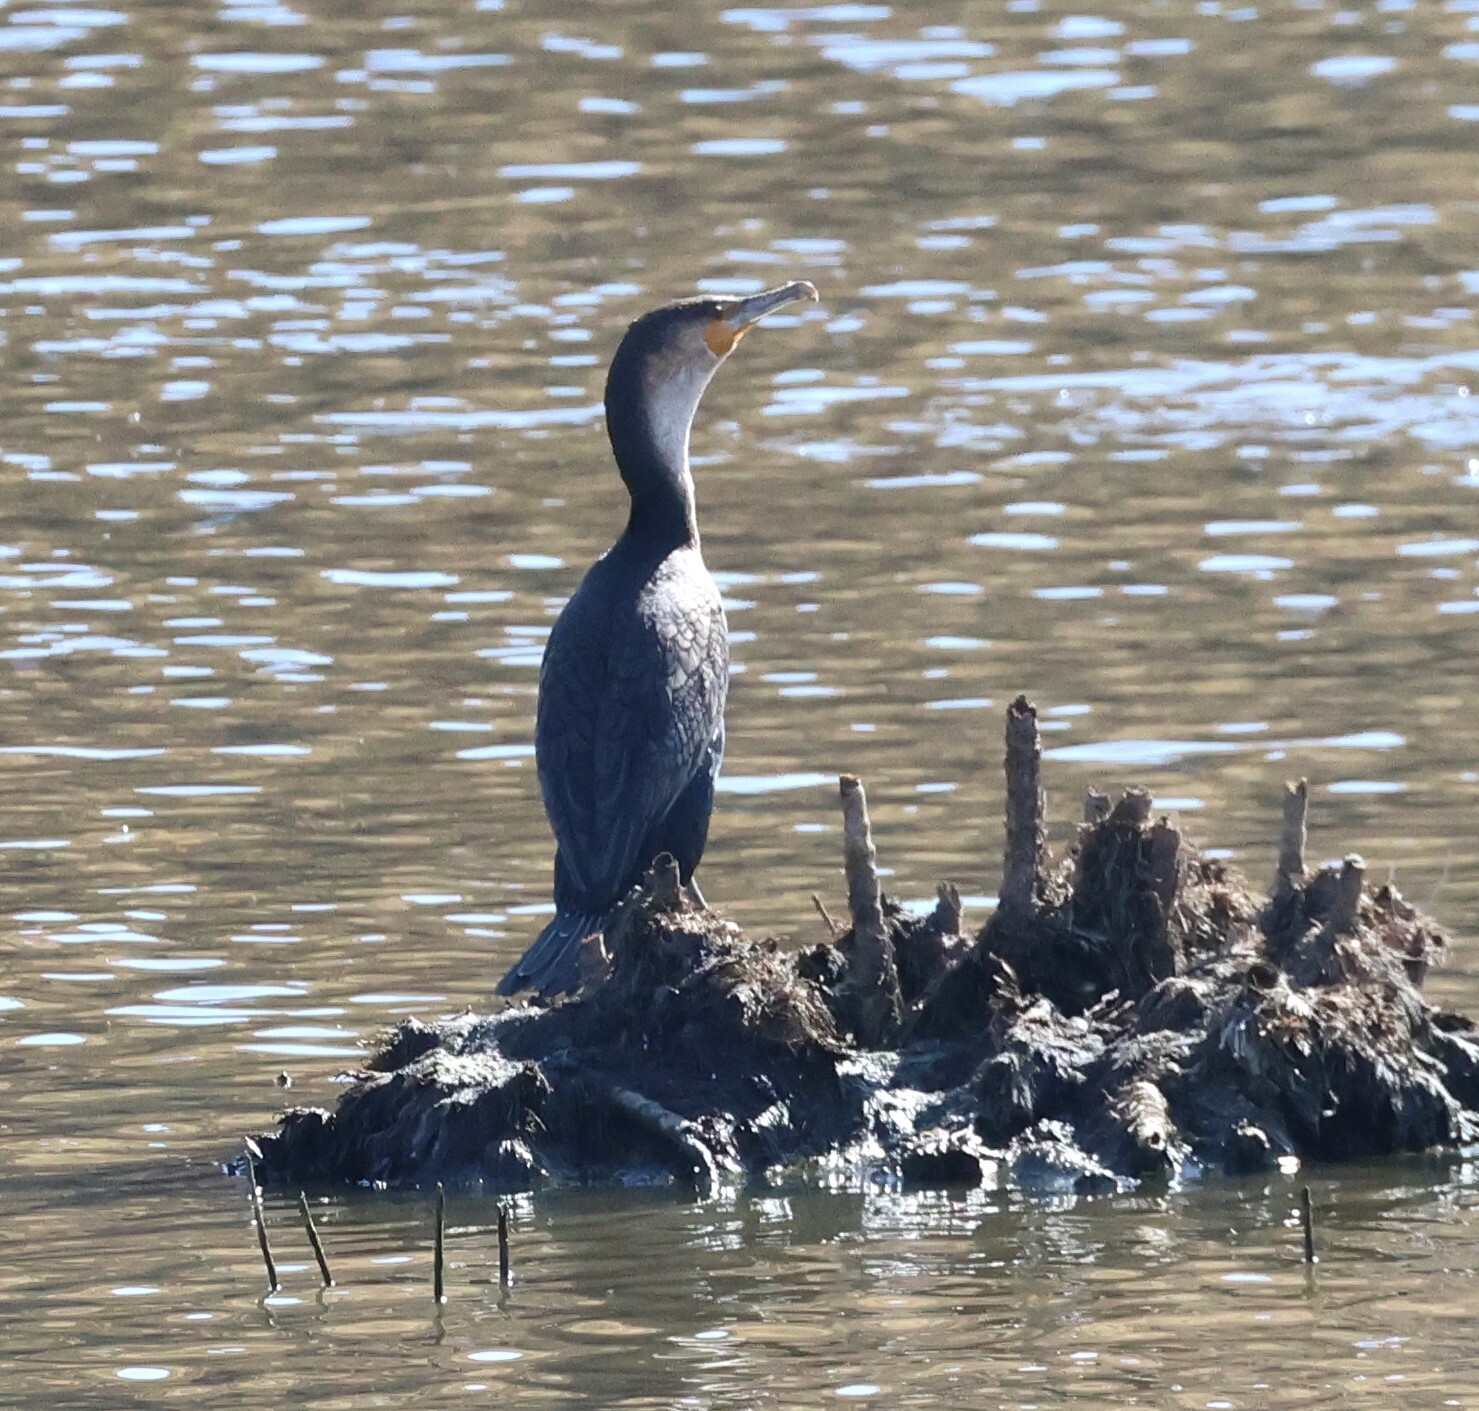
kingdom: Animalia
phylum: Chordata
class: Aves
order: Suliformes
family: Phalacrocoracidae
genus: Phalacrocorax
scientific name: Phalacrocorax carbo
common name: Great cormorant
